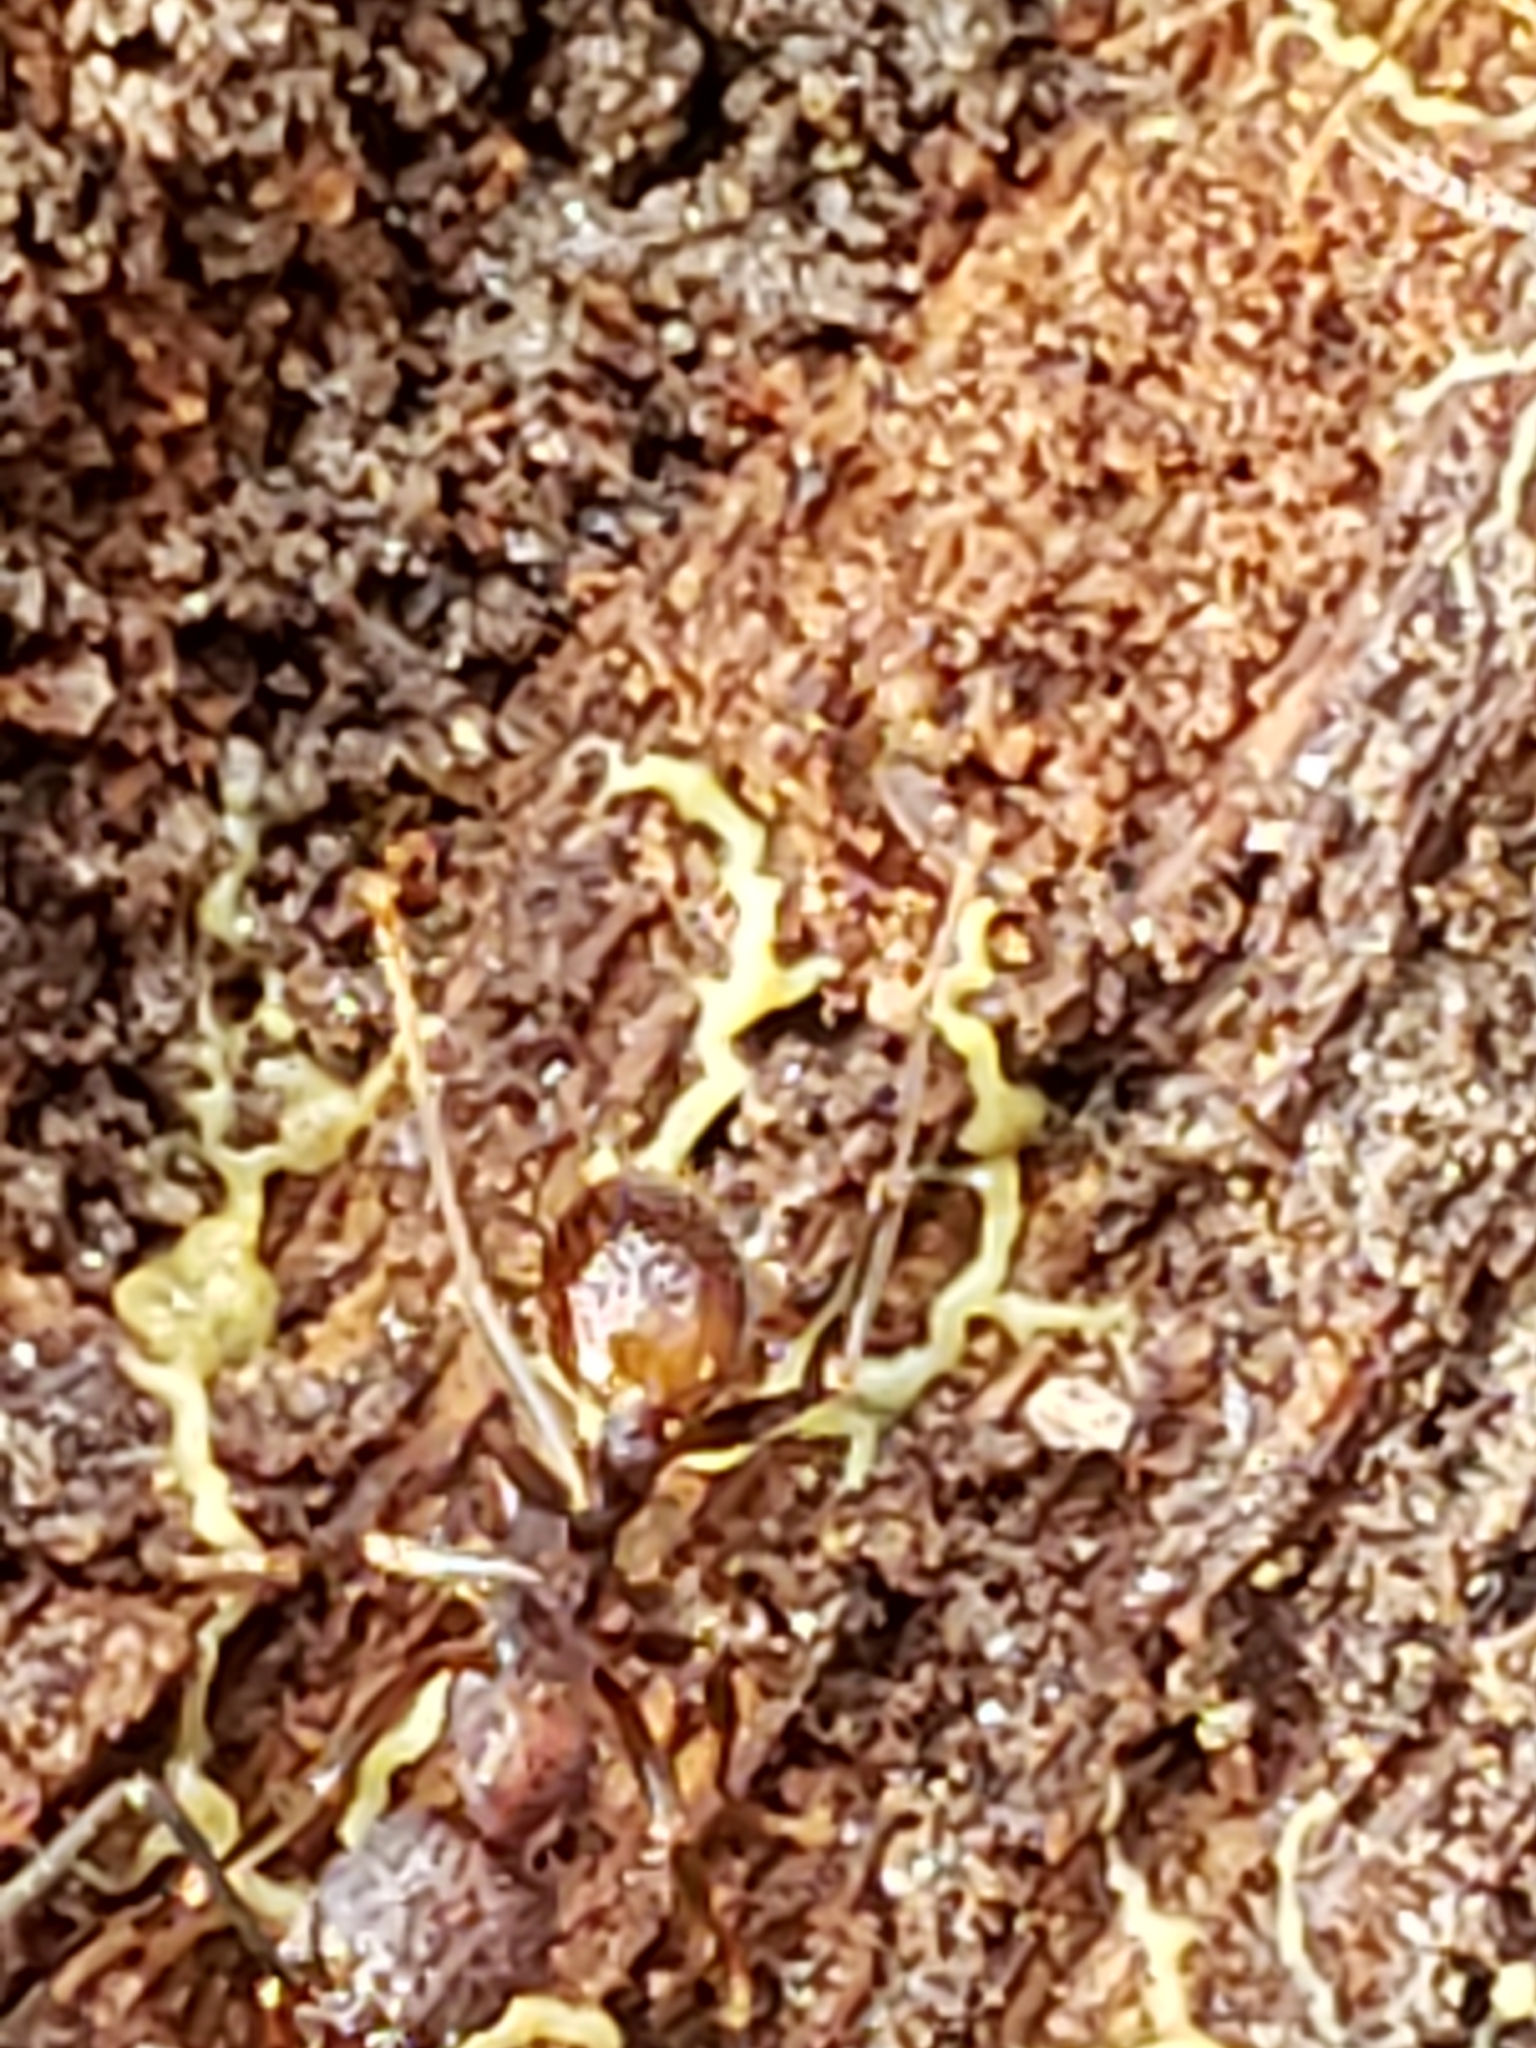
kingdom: Animalia
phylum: Arthropoda
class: Insecta
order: Hymenoptera
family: Formicidae
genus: Aphaenogaster
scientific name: Aphaenogaster fulva
